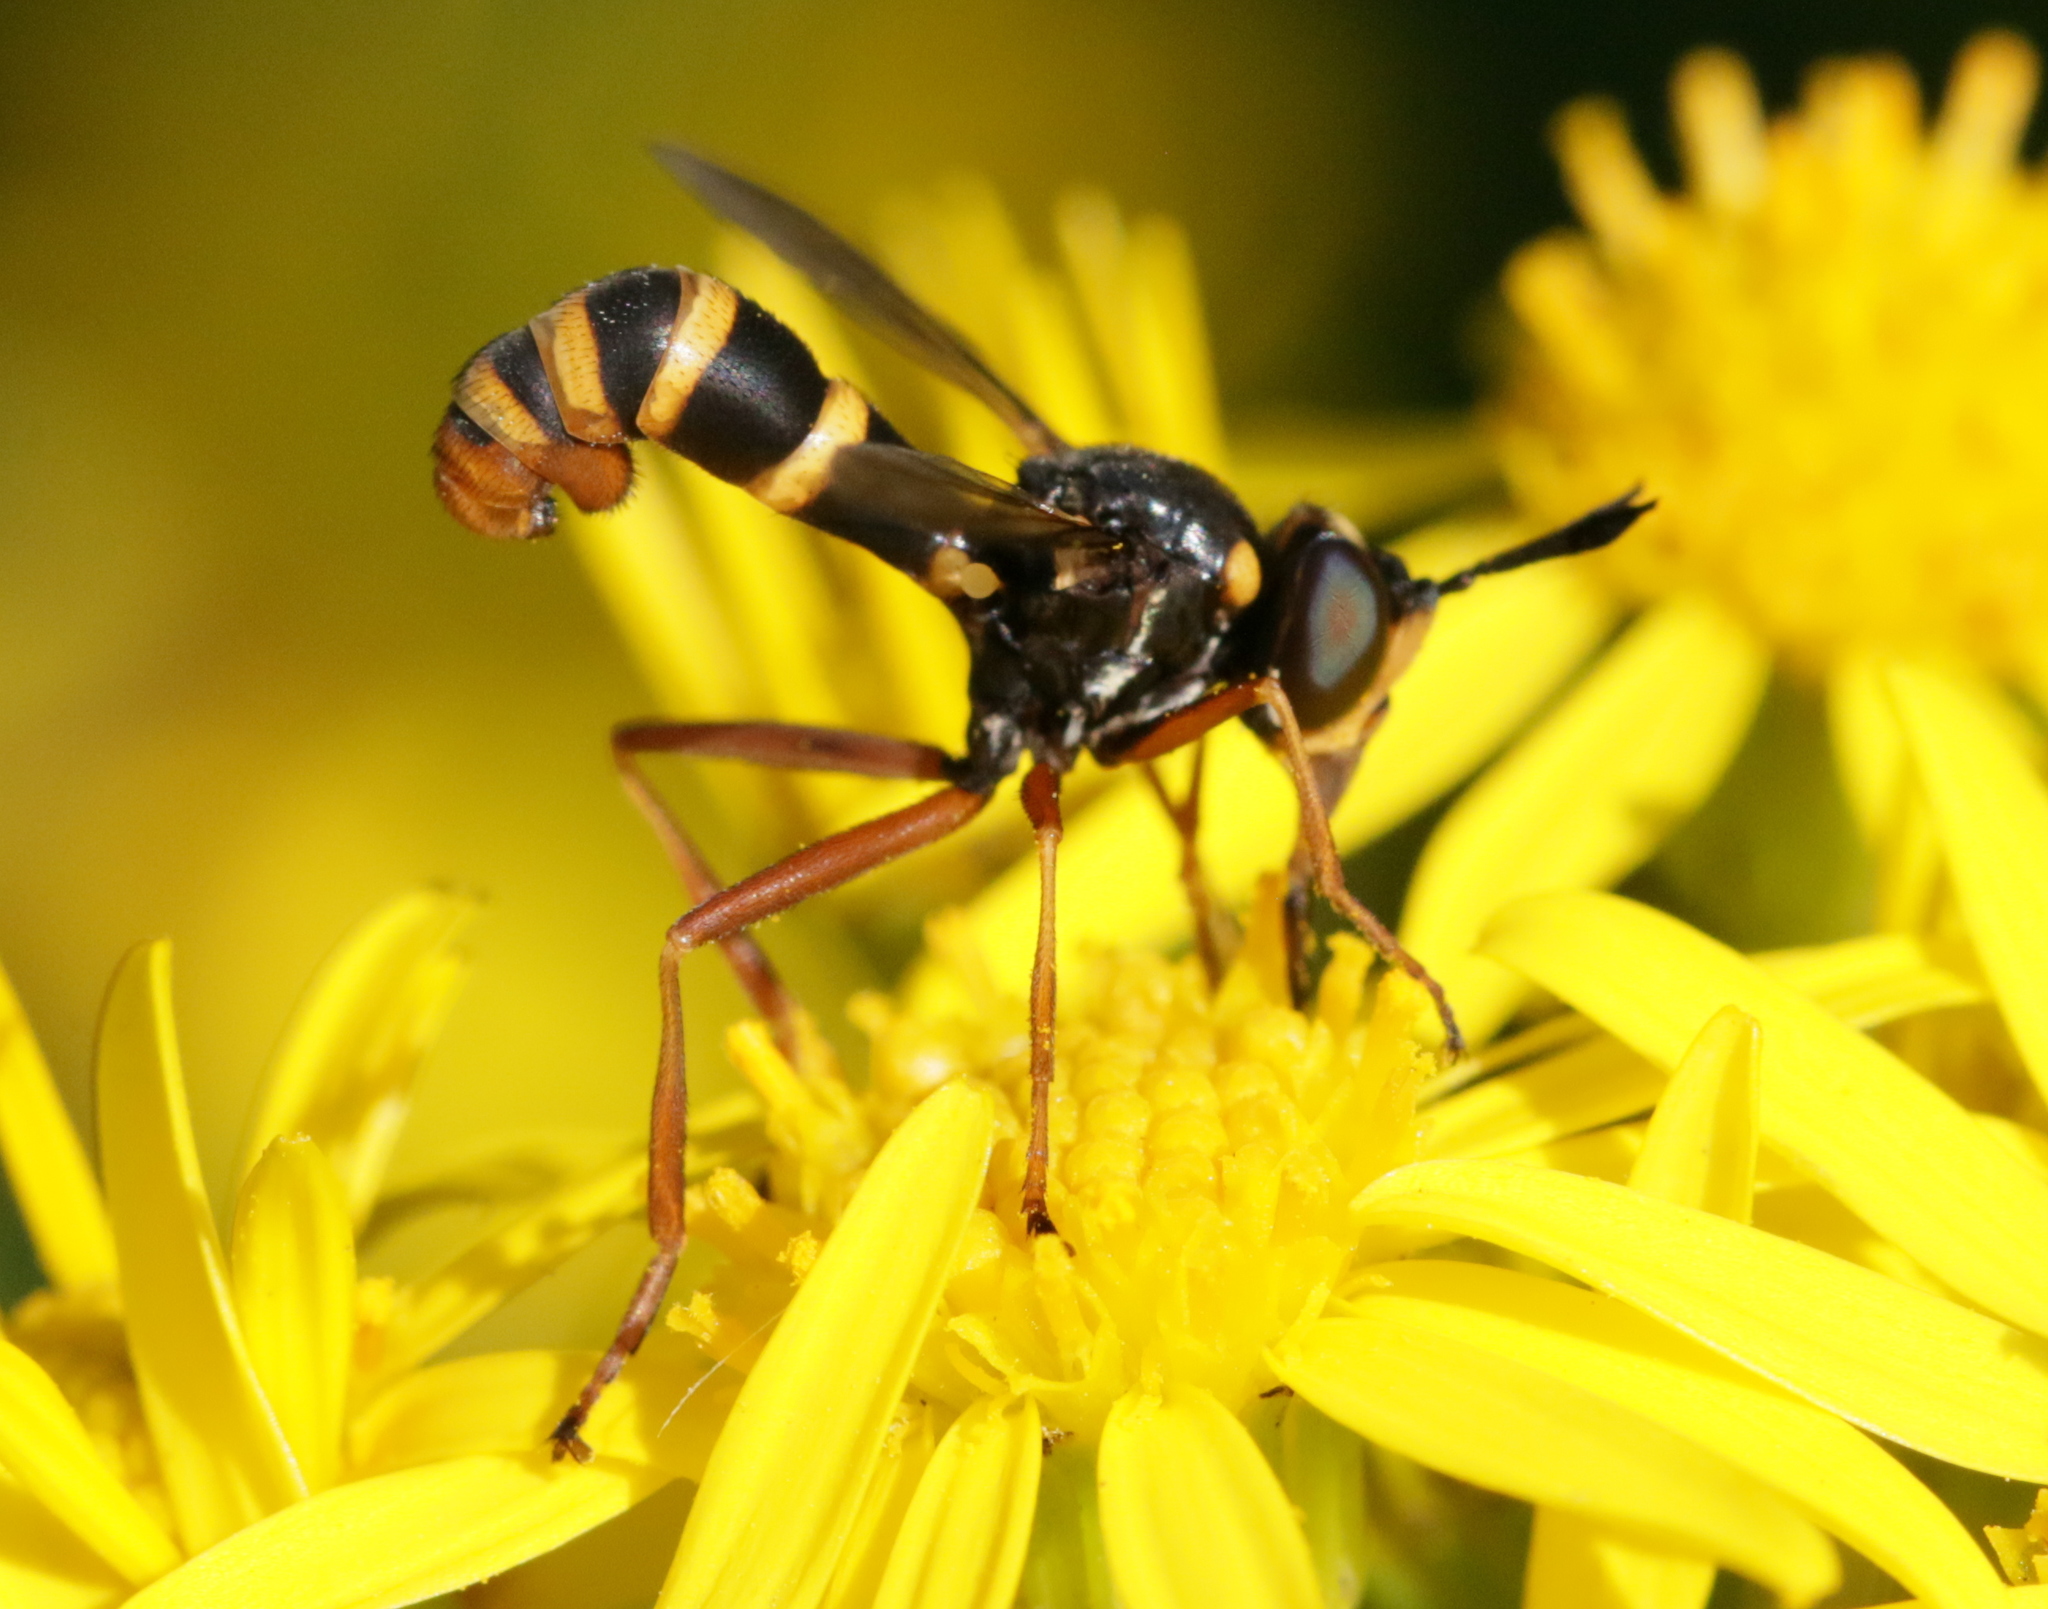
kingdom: Animalia
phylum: Arthropoda
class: Insecta
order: Diptera
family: Conopidae
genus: Conops
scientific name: Conops quadrifasciatus
